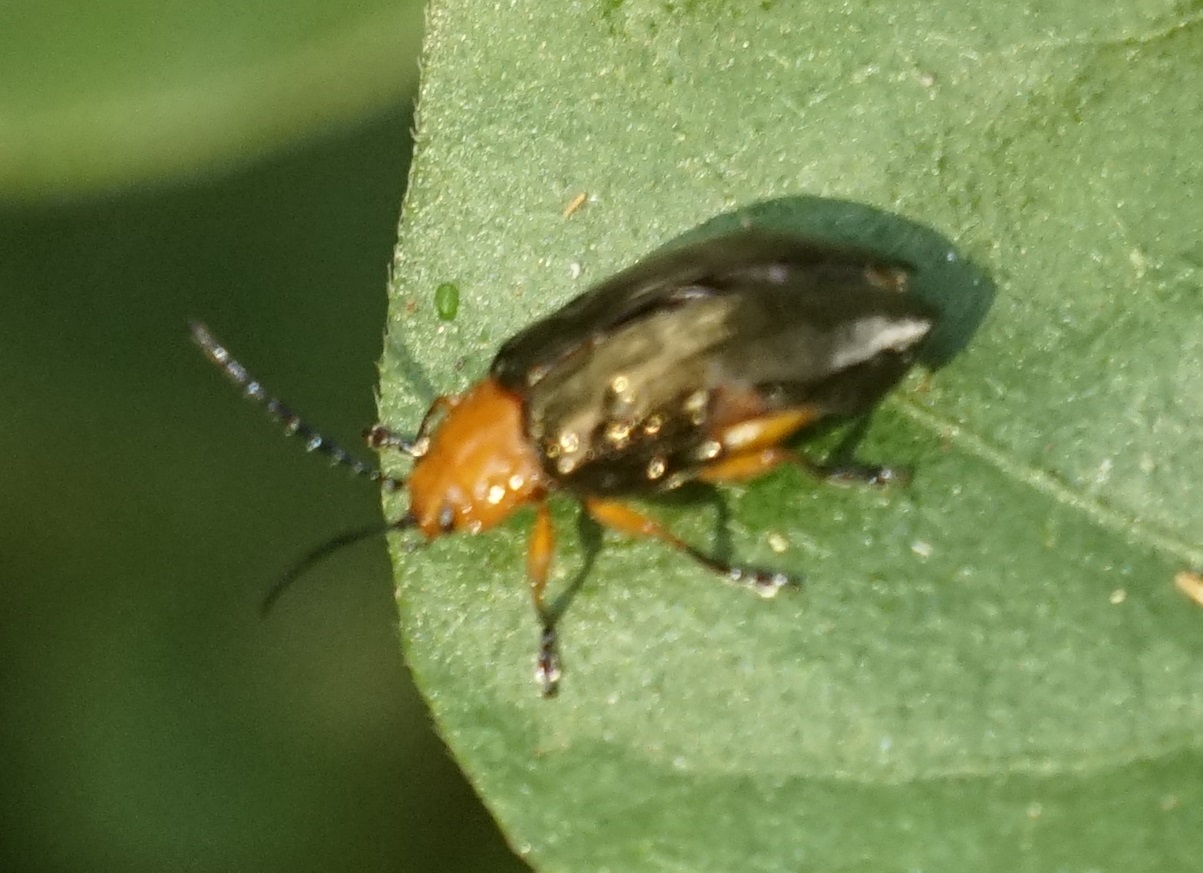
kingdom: Animalia
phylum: Arthropoda
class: Insecta
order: Coleoptera
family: Chrysomelidae
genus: Lamprolina
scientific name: Lamprolina
